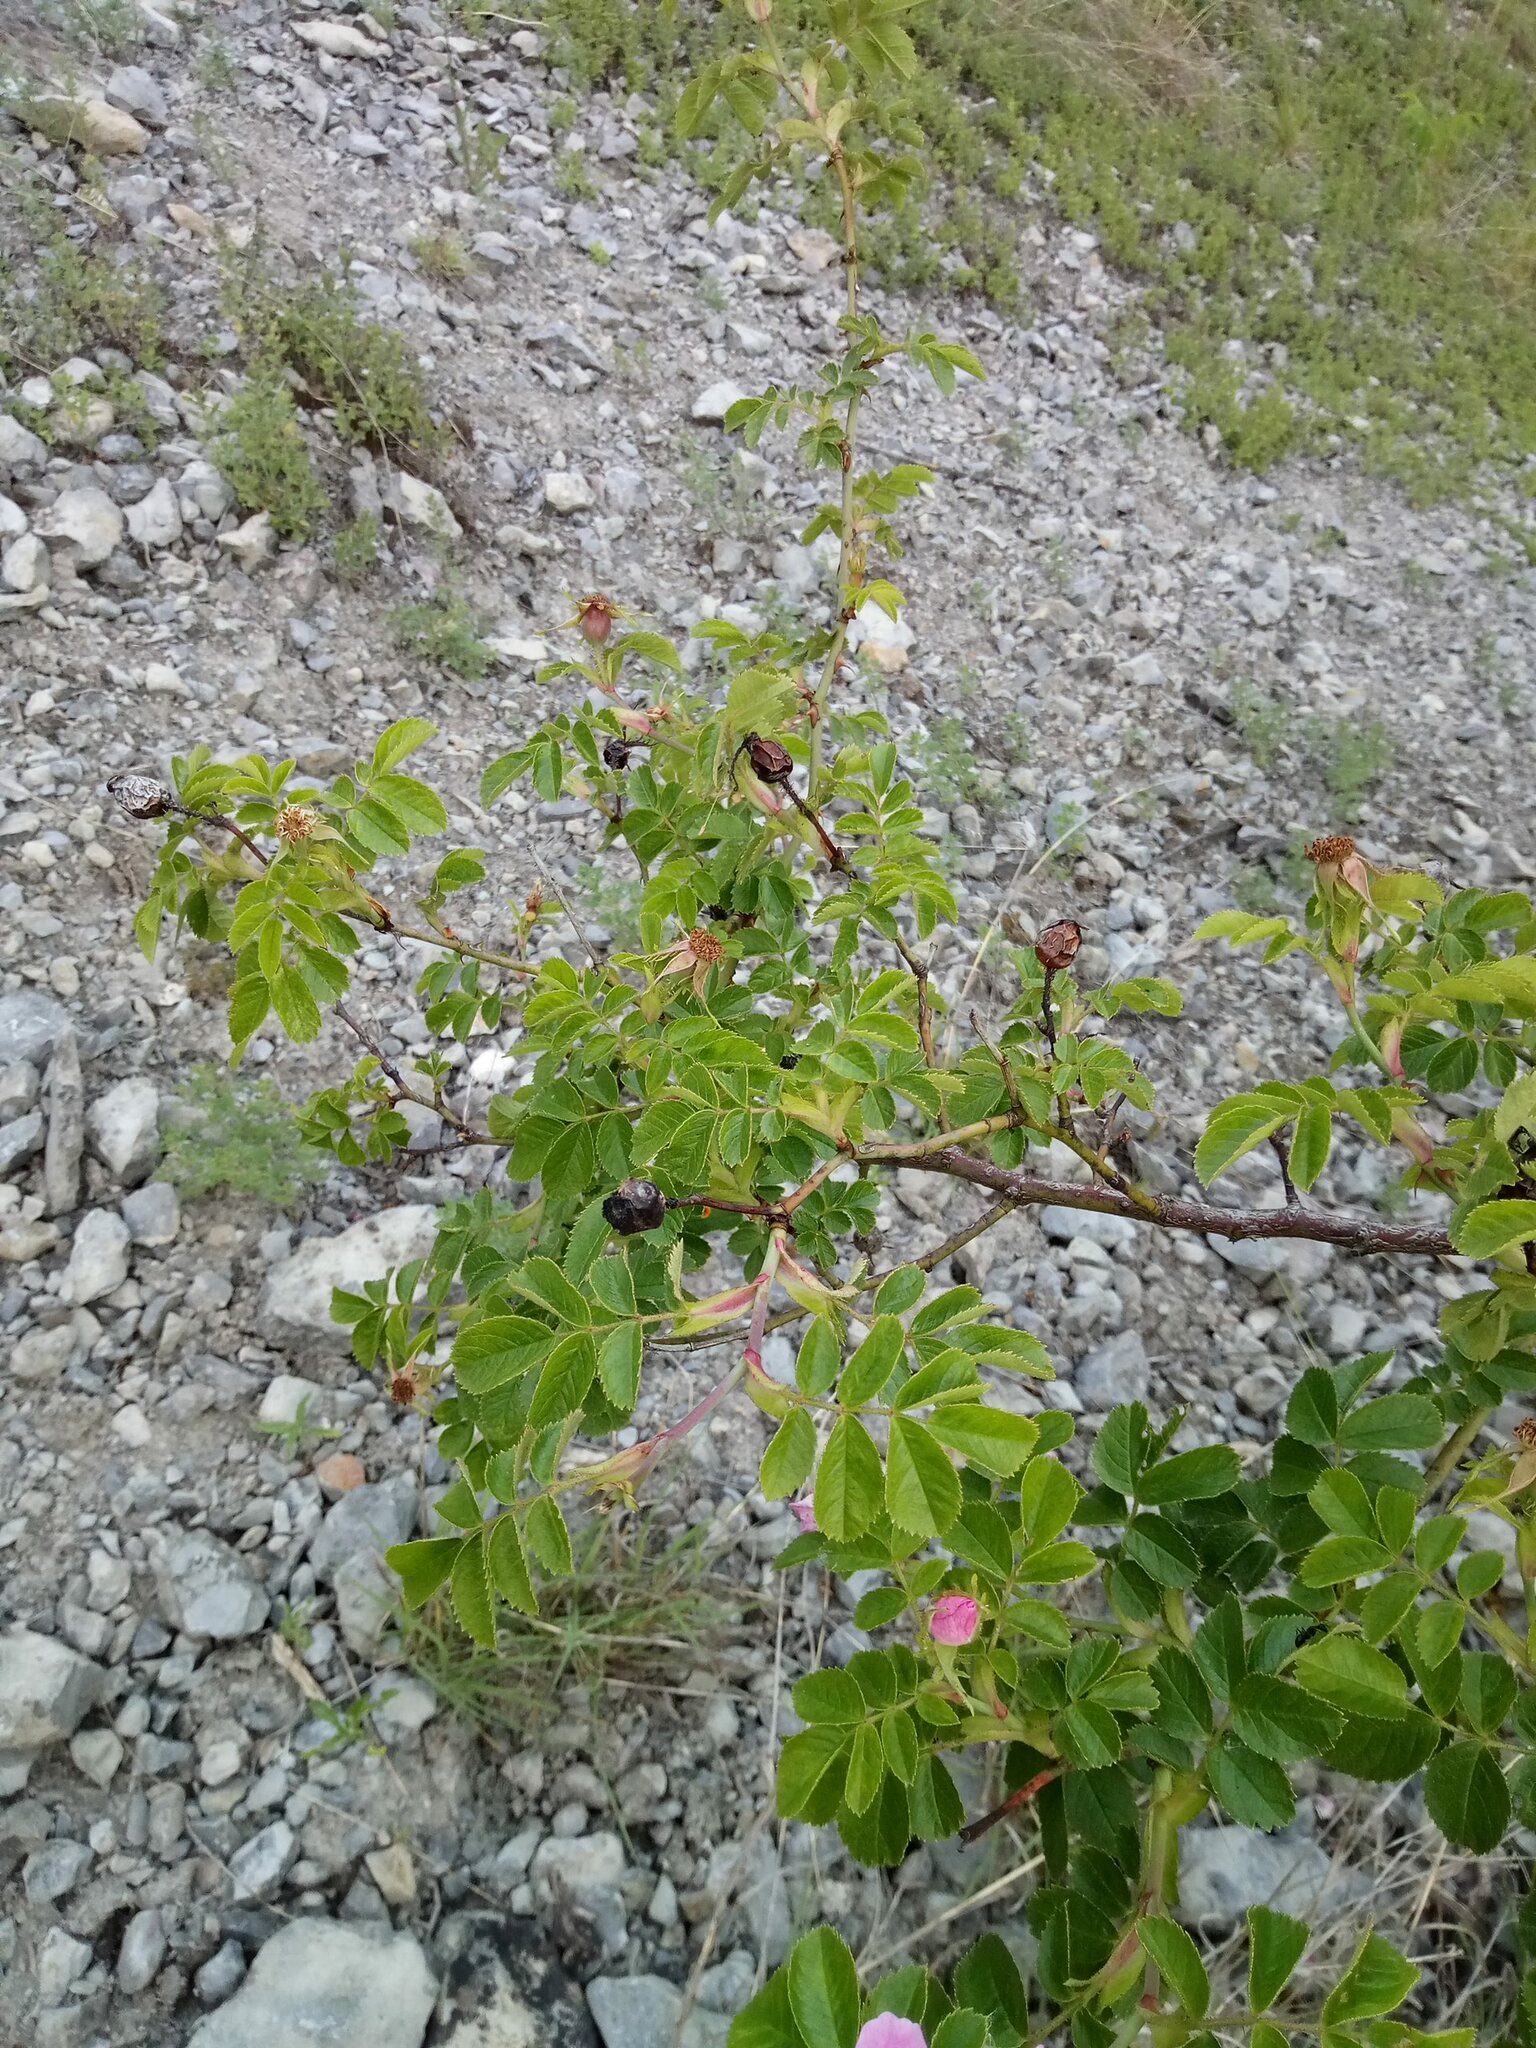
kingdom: Plantae
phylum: Tracheophyta
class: Magnoliopsida
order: Rosales
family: Rosaceae
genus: Rosa
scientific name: Rosa rubiginosa
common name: Sweet-briar
